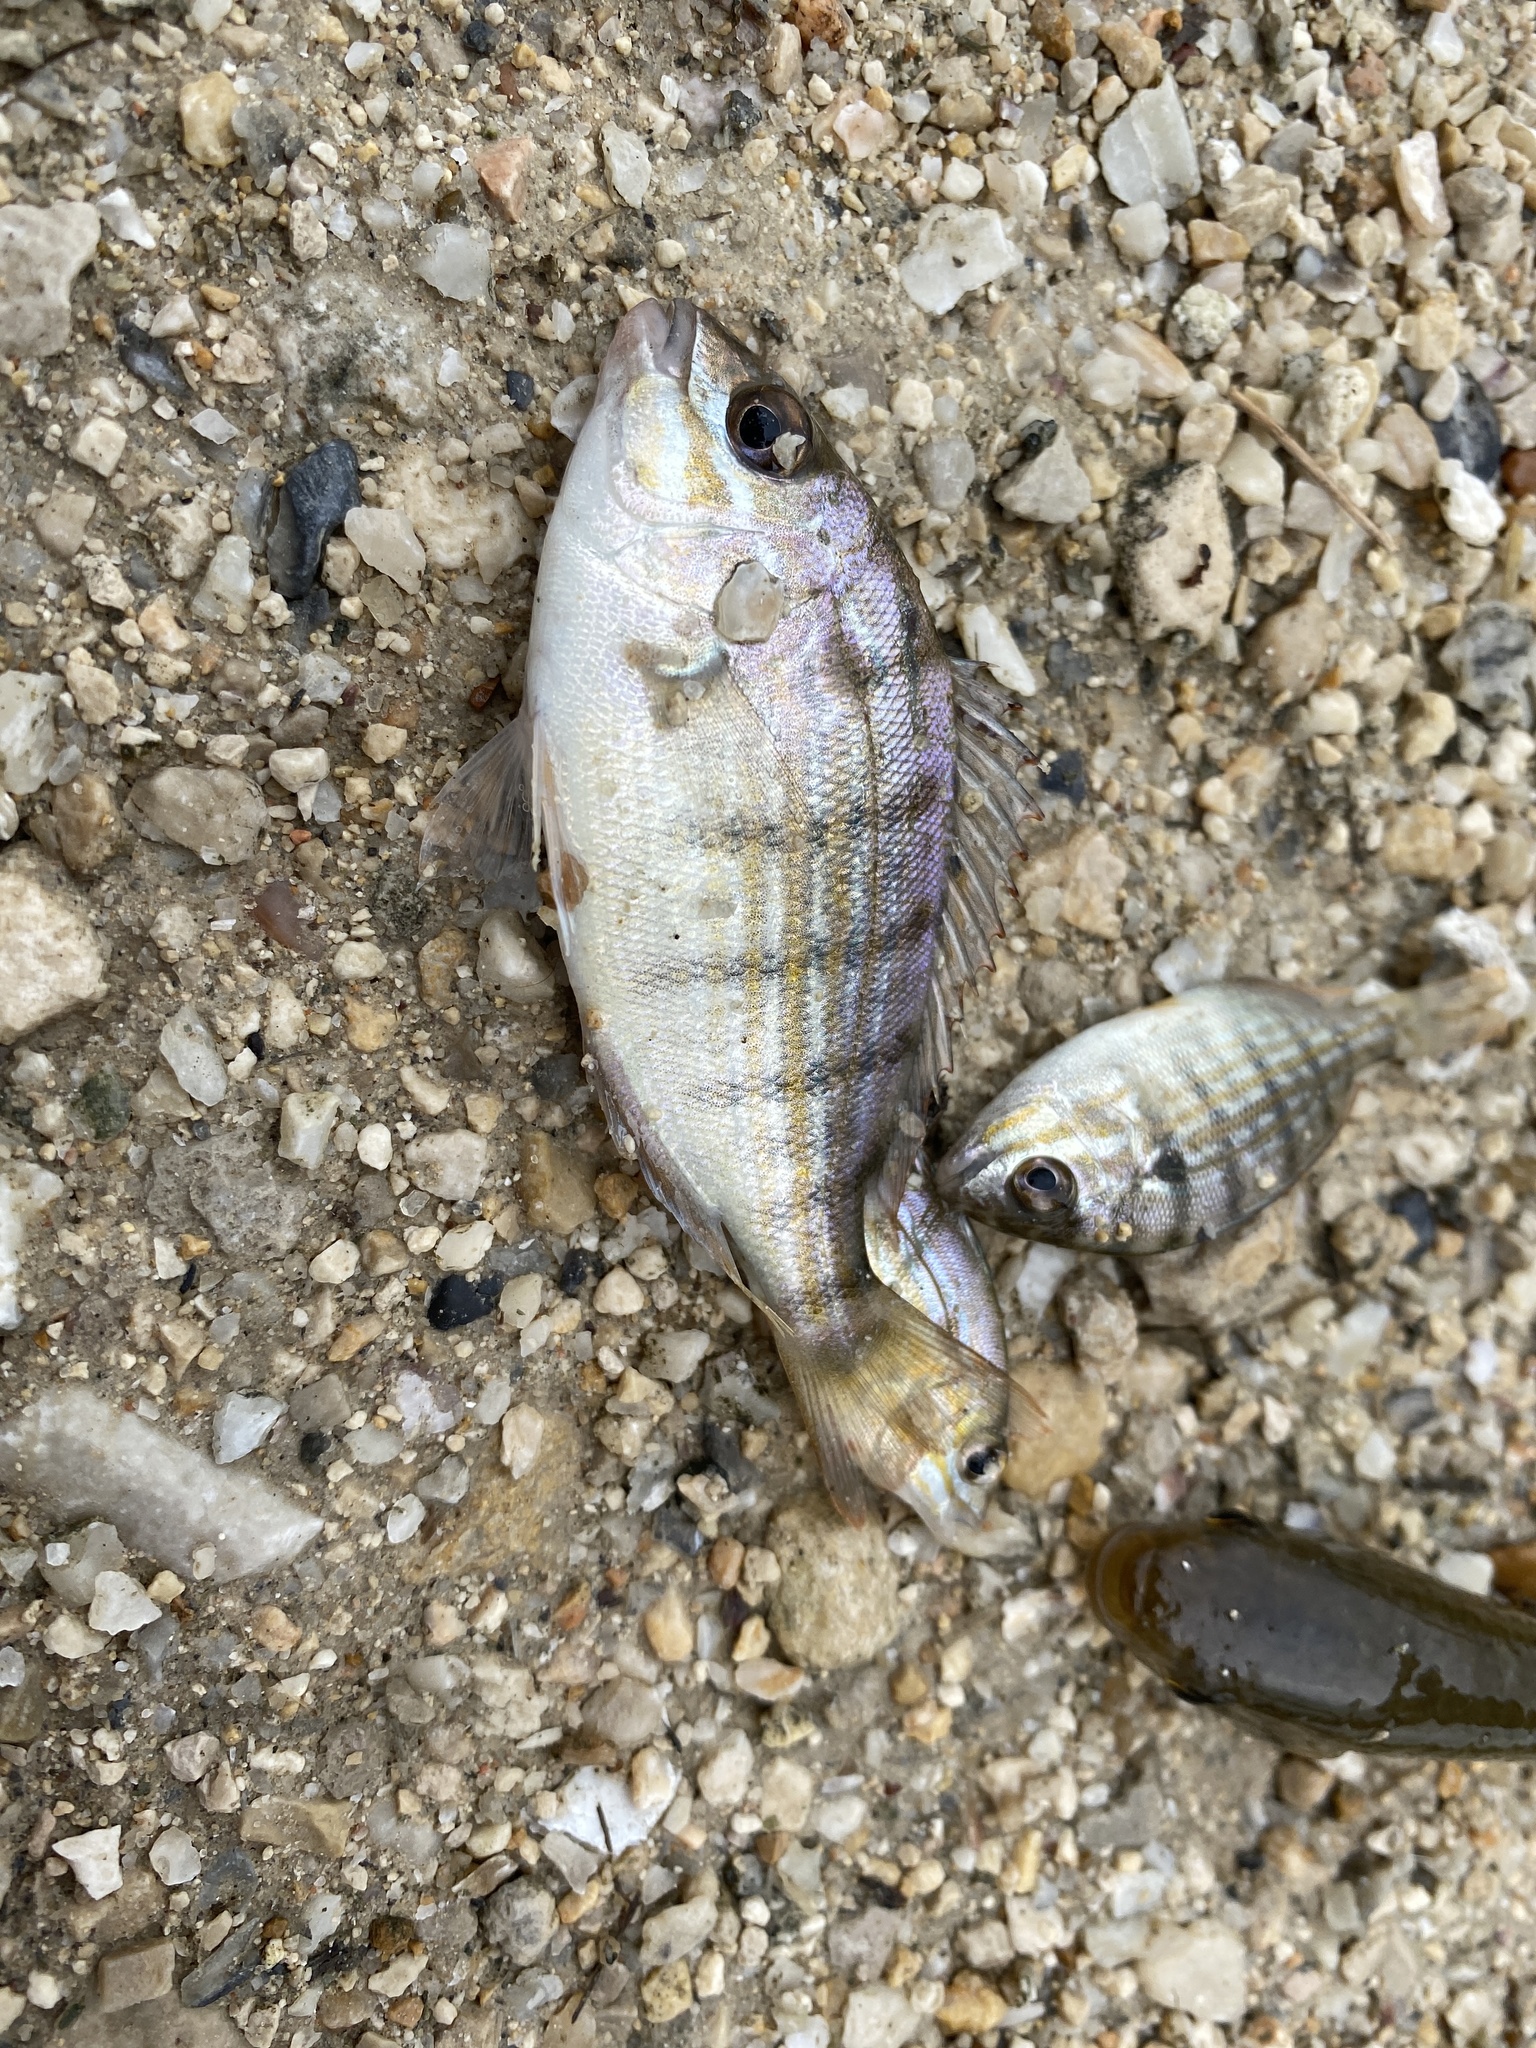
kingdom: Animalia
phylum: Chordata
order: Perciformes
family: Sparidae
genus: Lagodon
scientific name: Lagodon rhomboides
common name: Pinfish
